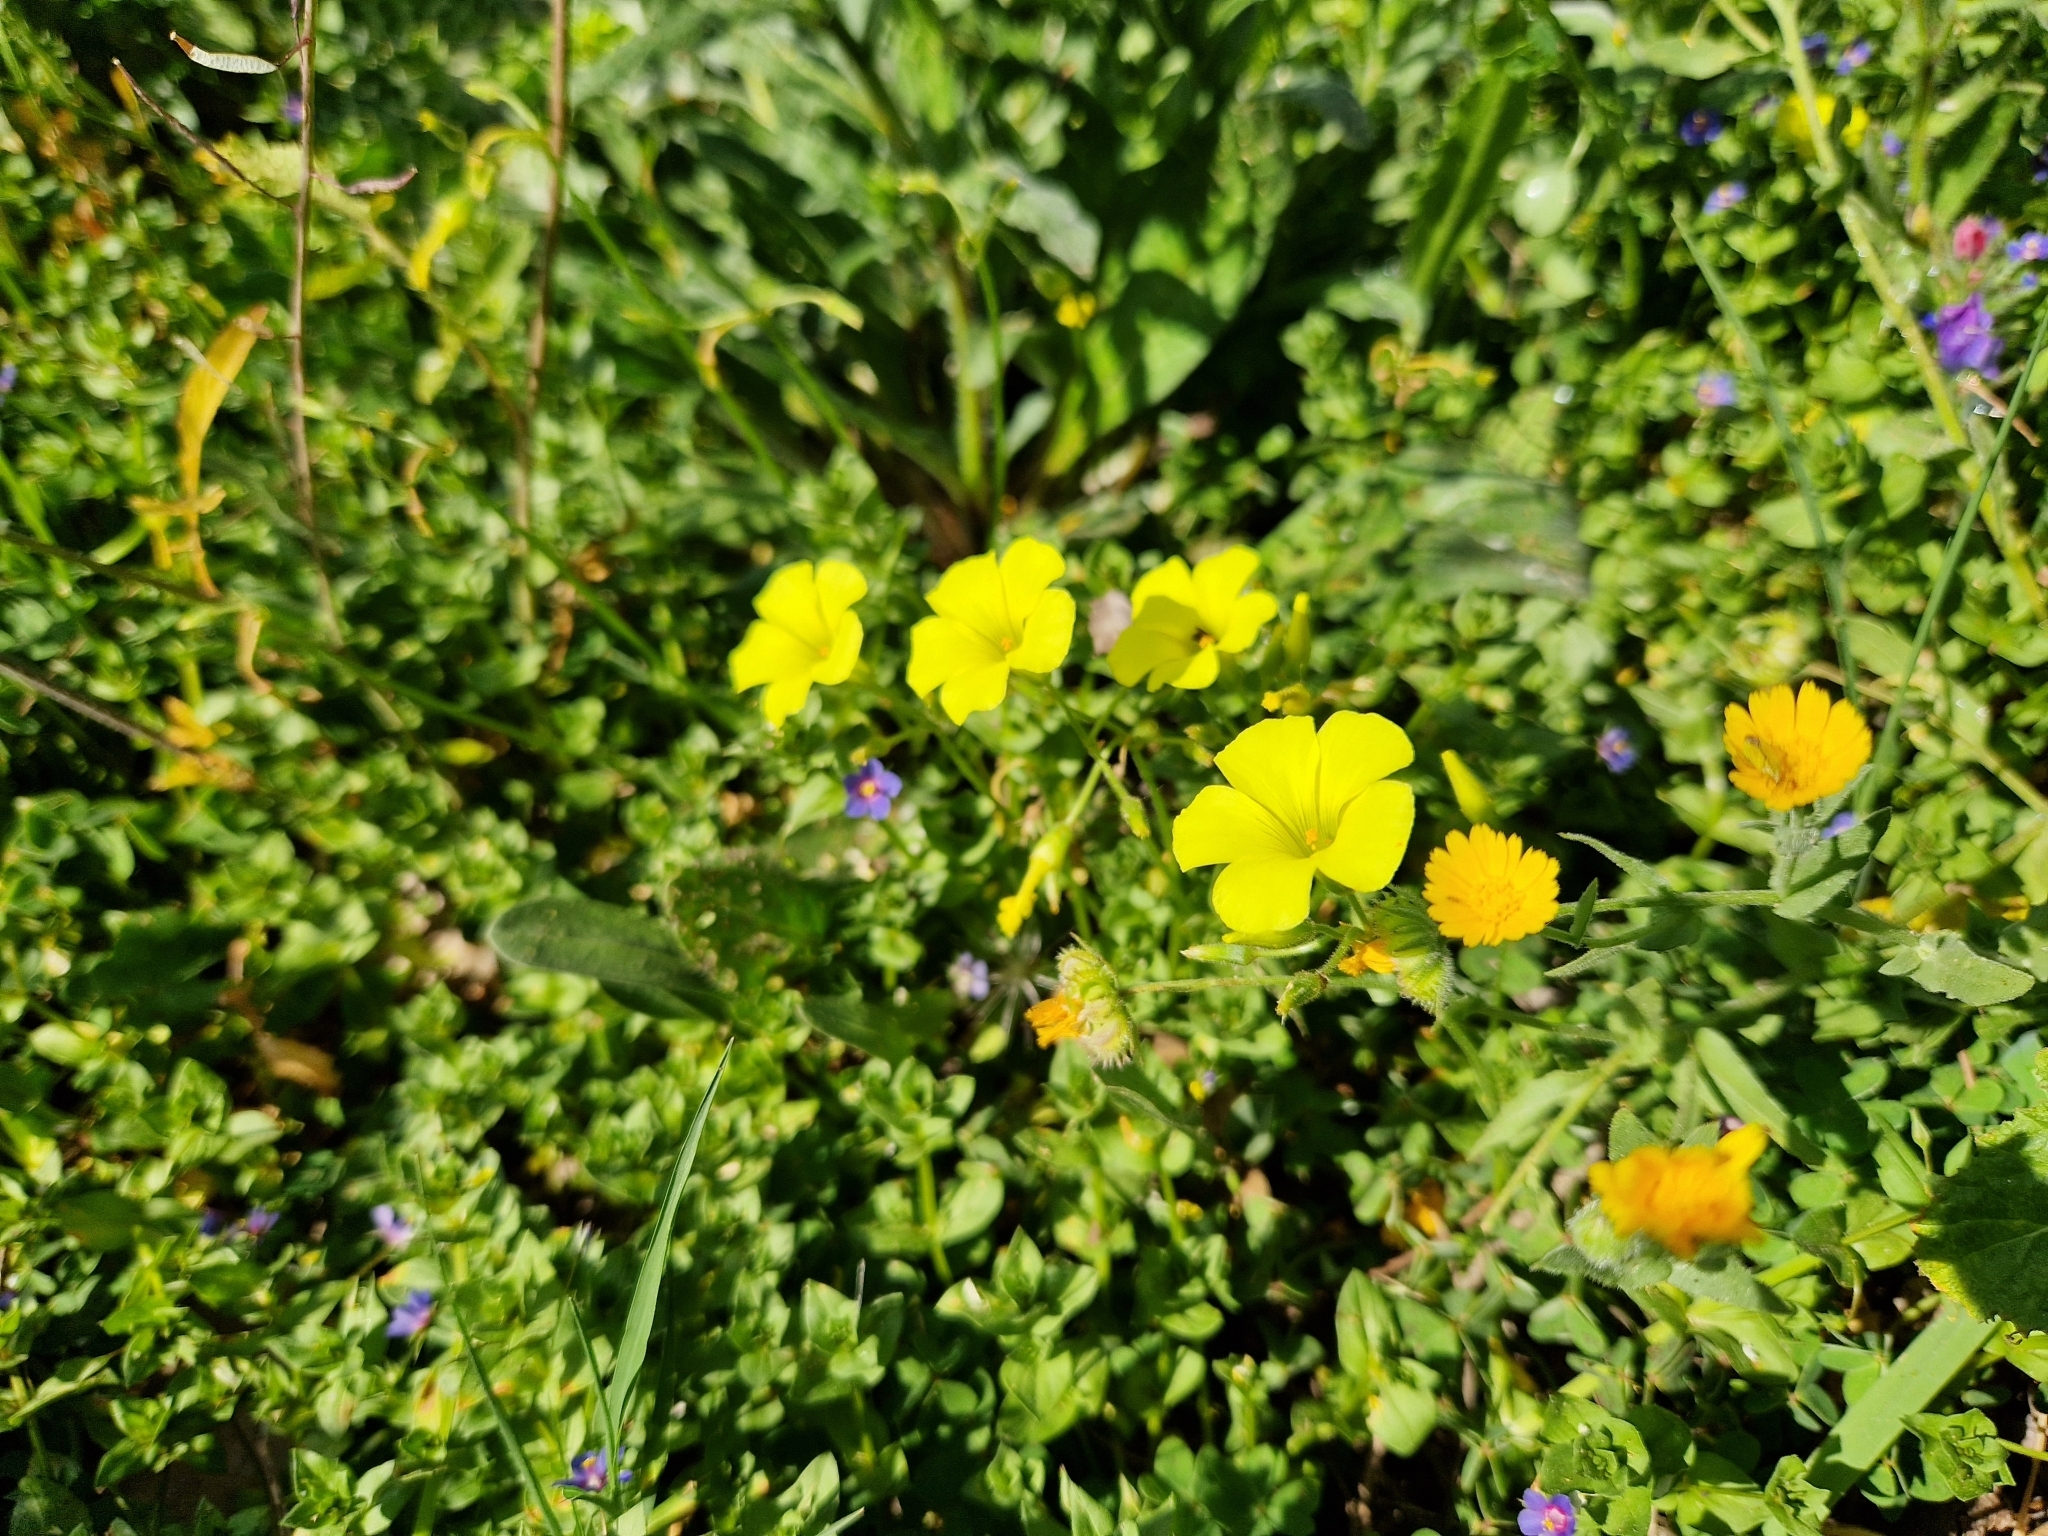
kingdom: Plantae
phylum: Tracheophyta
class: Magnoliopsida
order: Oxalidales
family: Oxalidaceae
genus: Oxalis
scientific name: Oxalis pes-caprae
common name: Bermuda-buttercup
